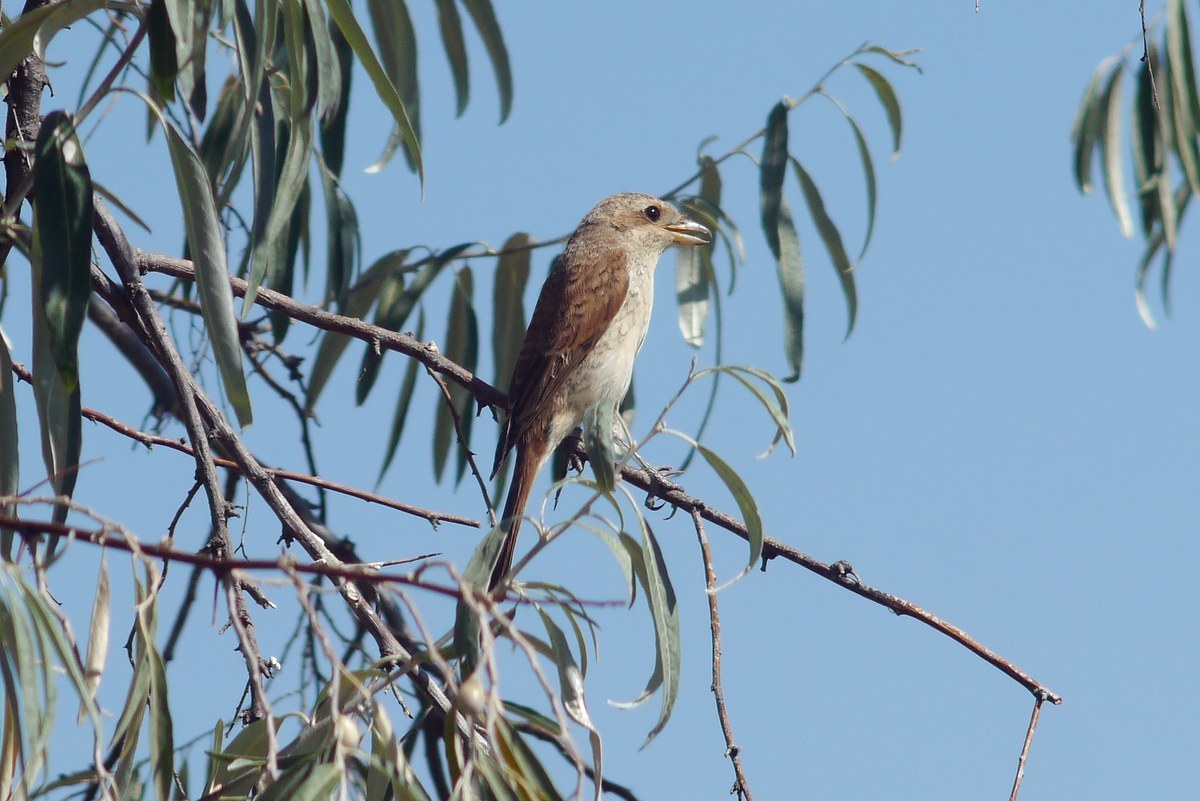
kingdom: Animalia
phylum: Chordata
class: Aves
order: Passeriformes
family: Laniidae
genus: Lanius
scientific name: Lanius collurio
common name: Red-backed shrike
